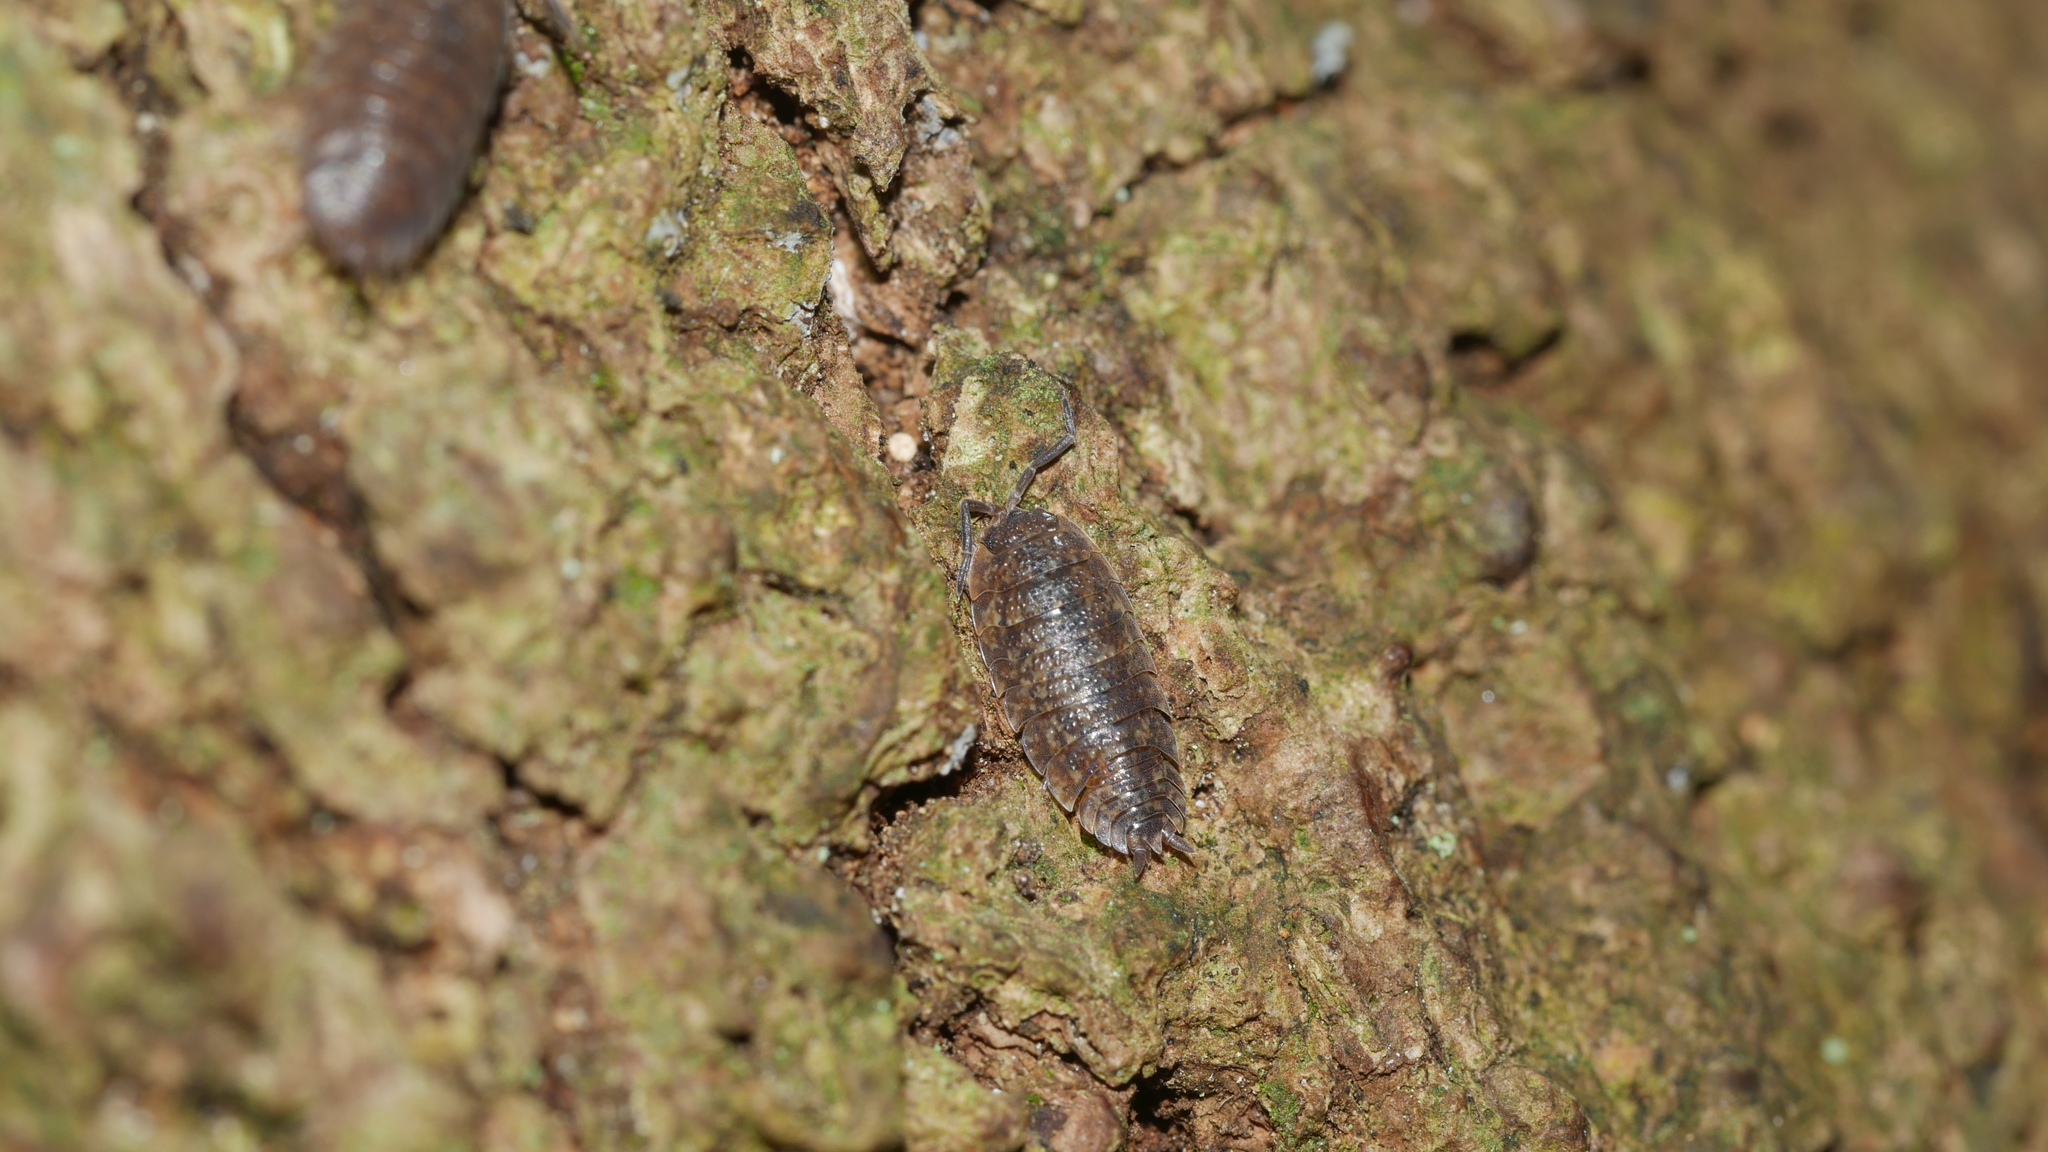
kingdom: Animalia
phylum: Arthropoda
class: Malacostraca
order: Isopoda
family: Porcellionidae
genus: Porcellio
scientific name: Porcellio scaber
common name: Common rough woodlouse
